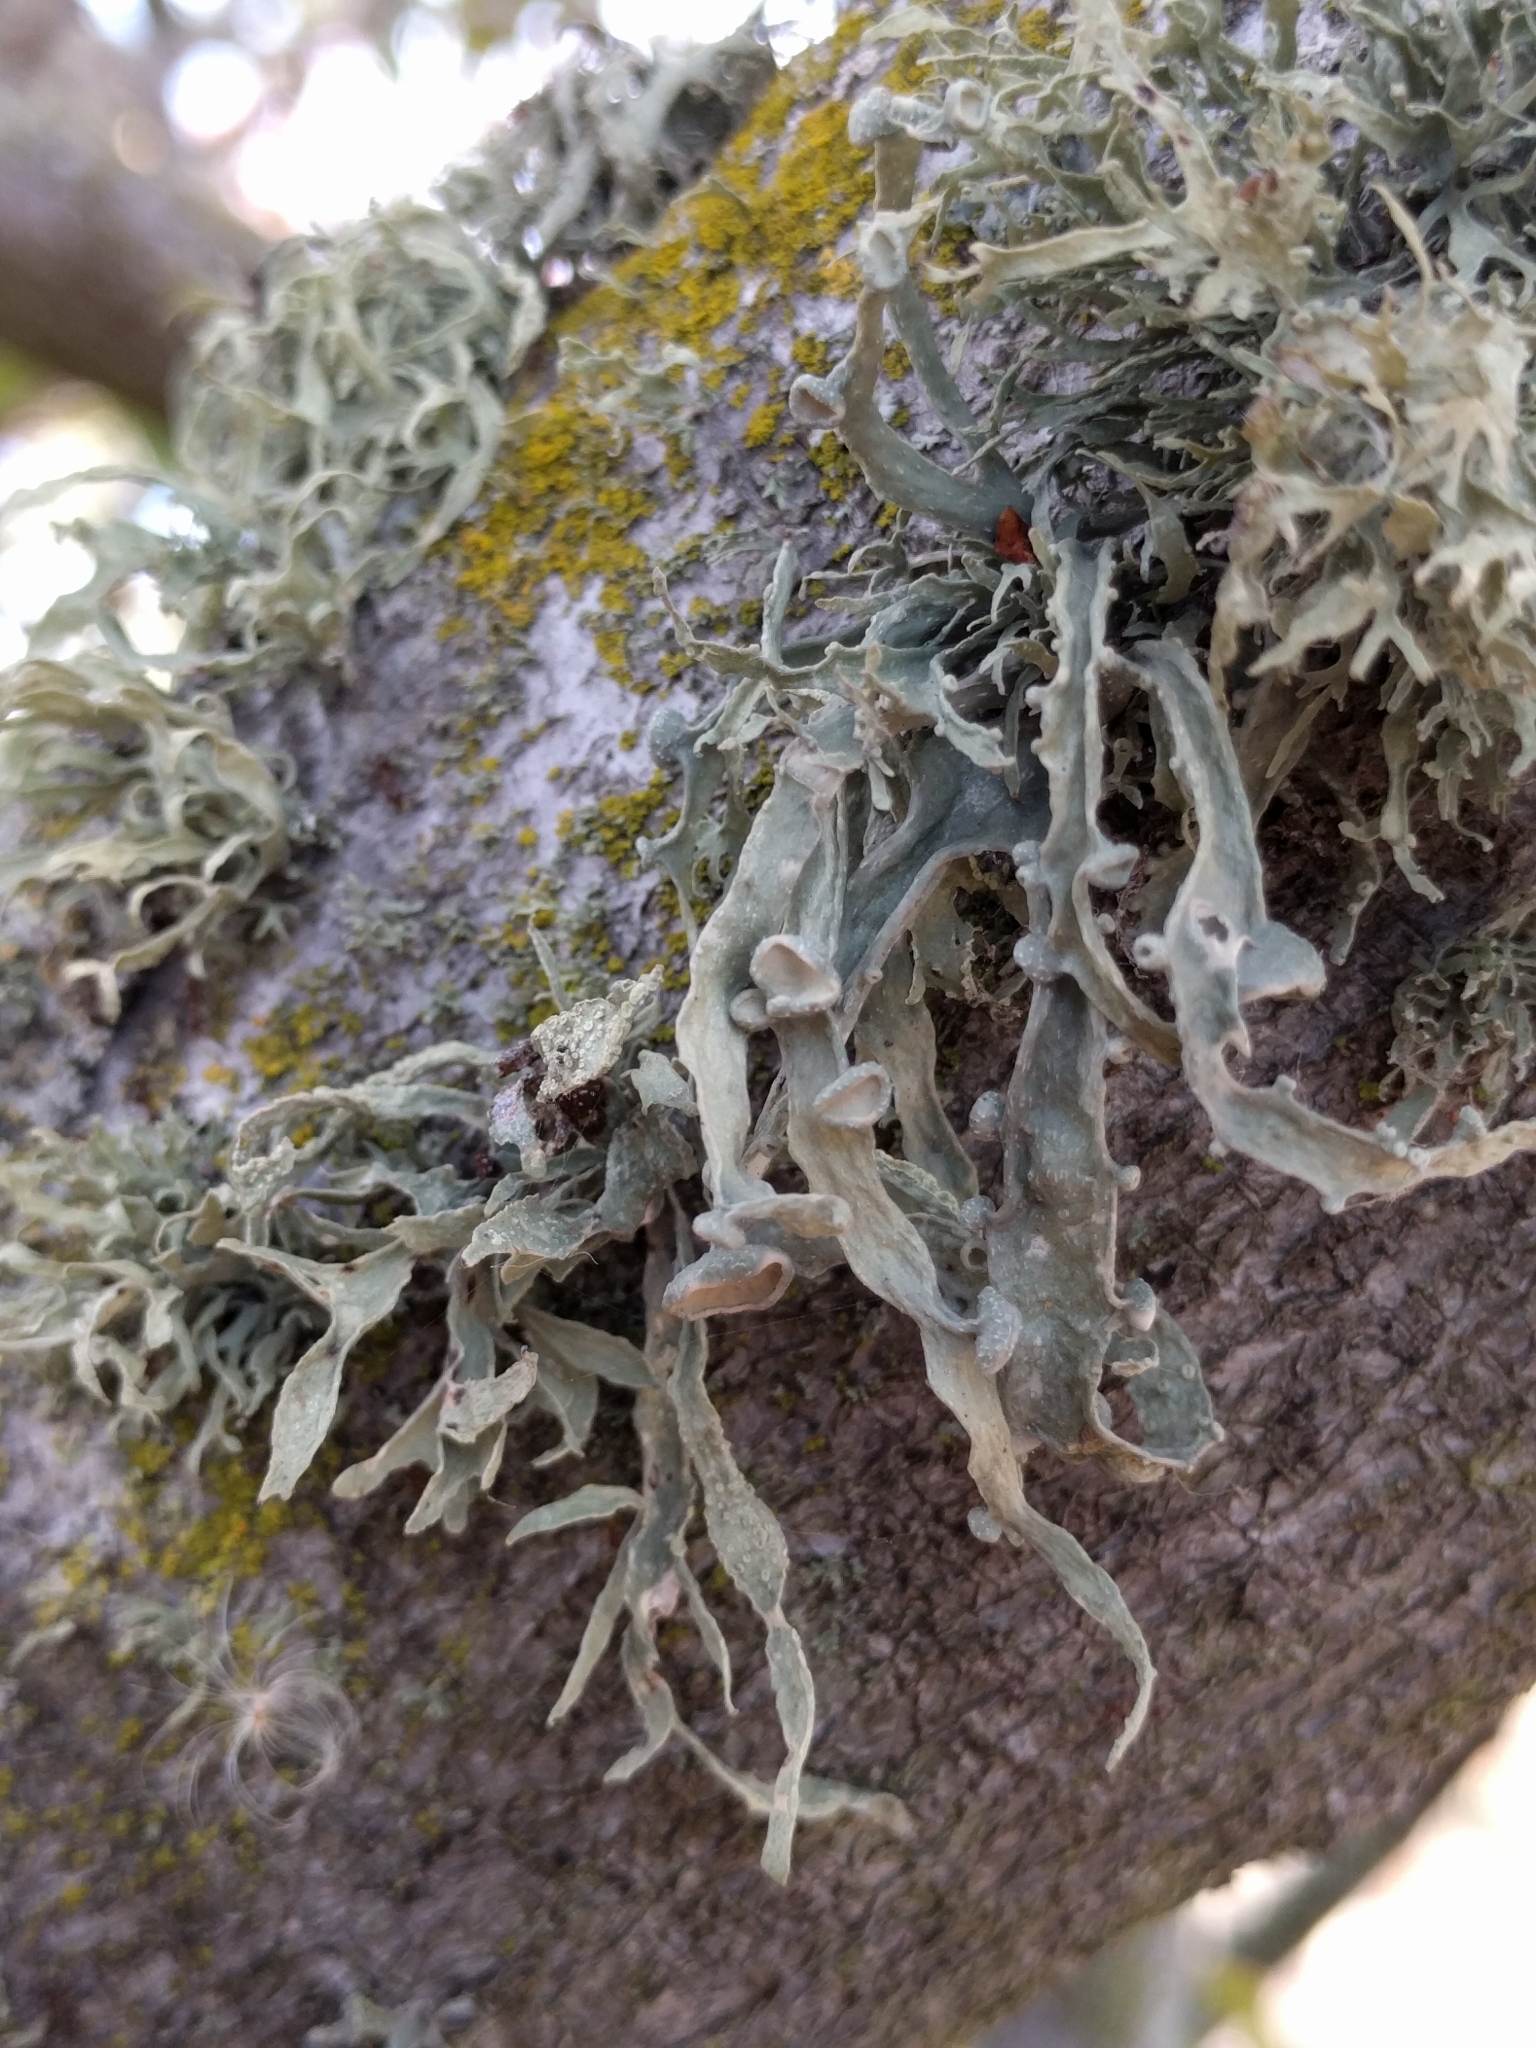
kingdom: Fungi
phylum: Ascomycota
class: Lecanoromycetes
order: Lecanorales
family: Ramalinaceae
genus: Ramalina
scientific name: Ramalina leptocarpha
